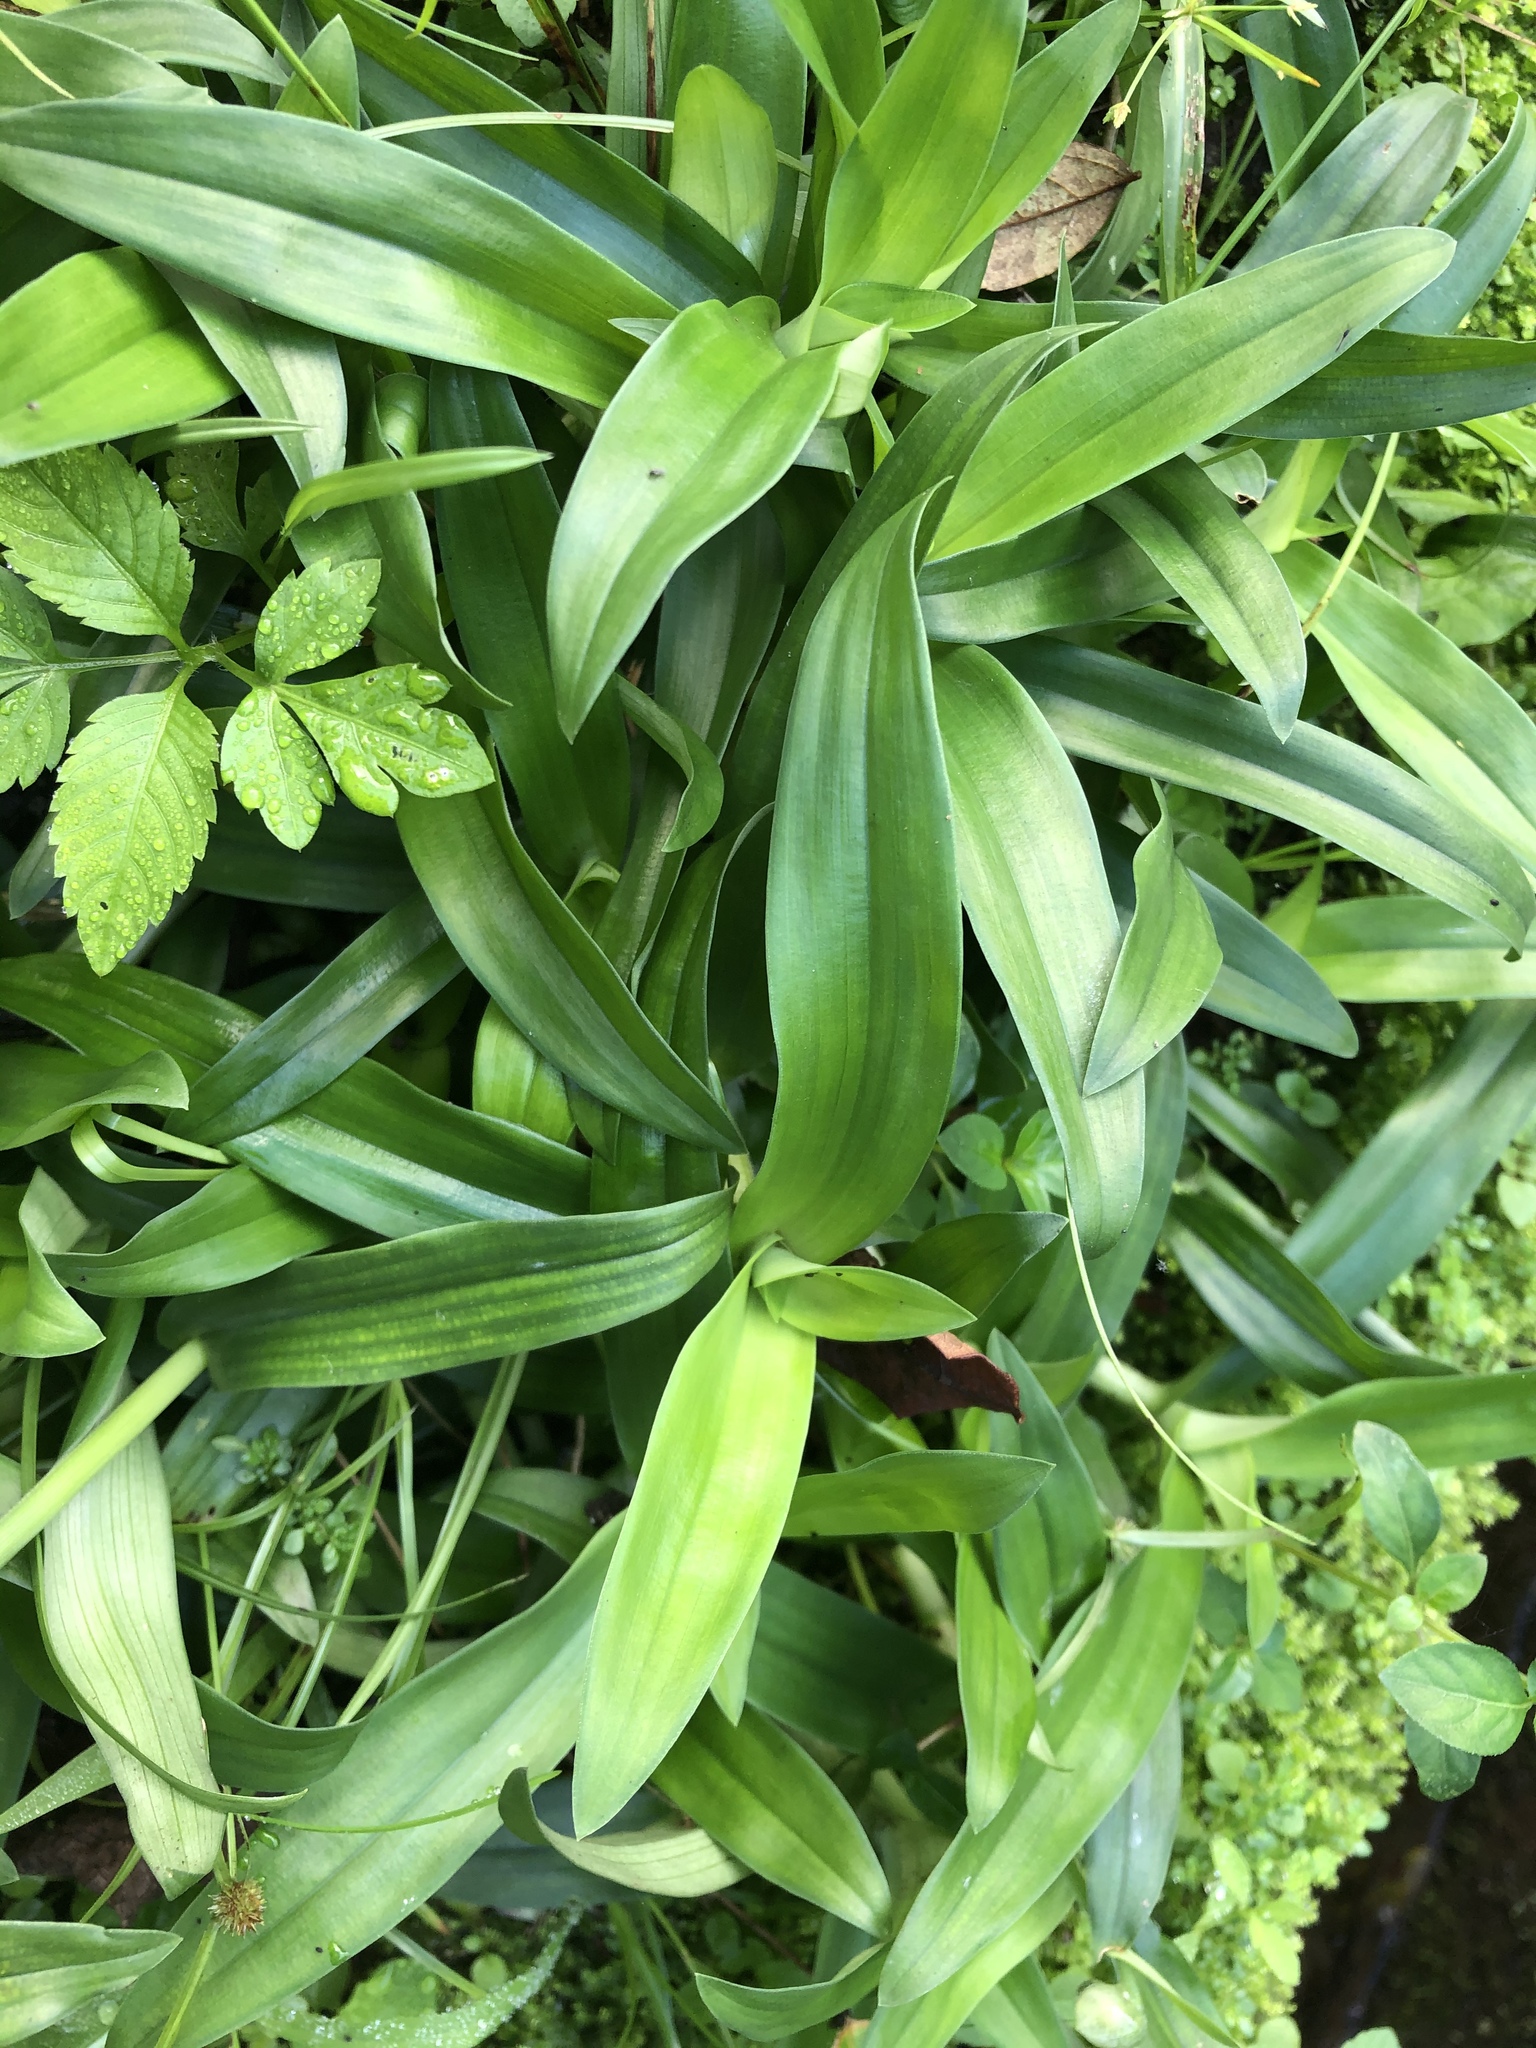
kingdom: Plantae
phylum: Tracheophyta
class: Liliopsida
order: Commelinales
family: Commelinaceae
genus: Murdannia
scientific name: Murdannia bracteata
